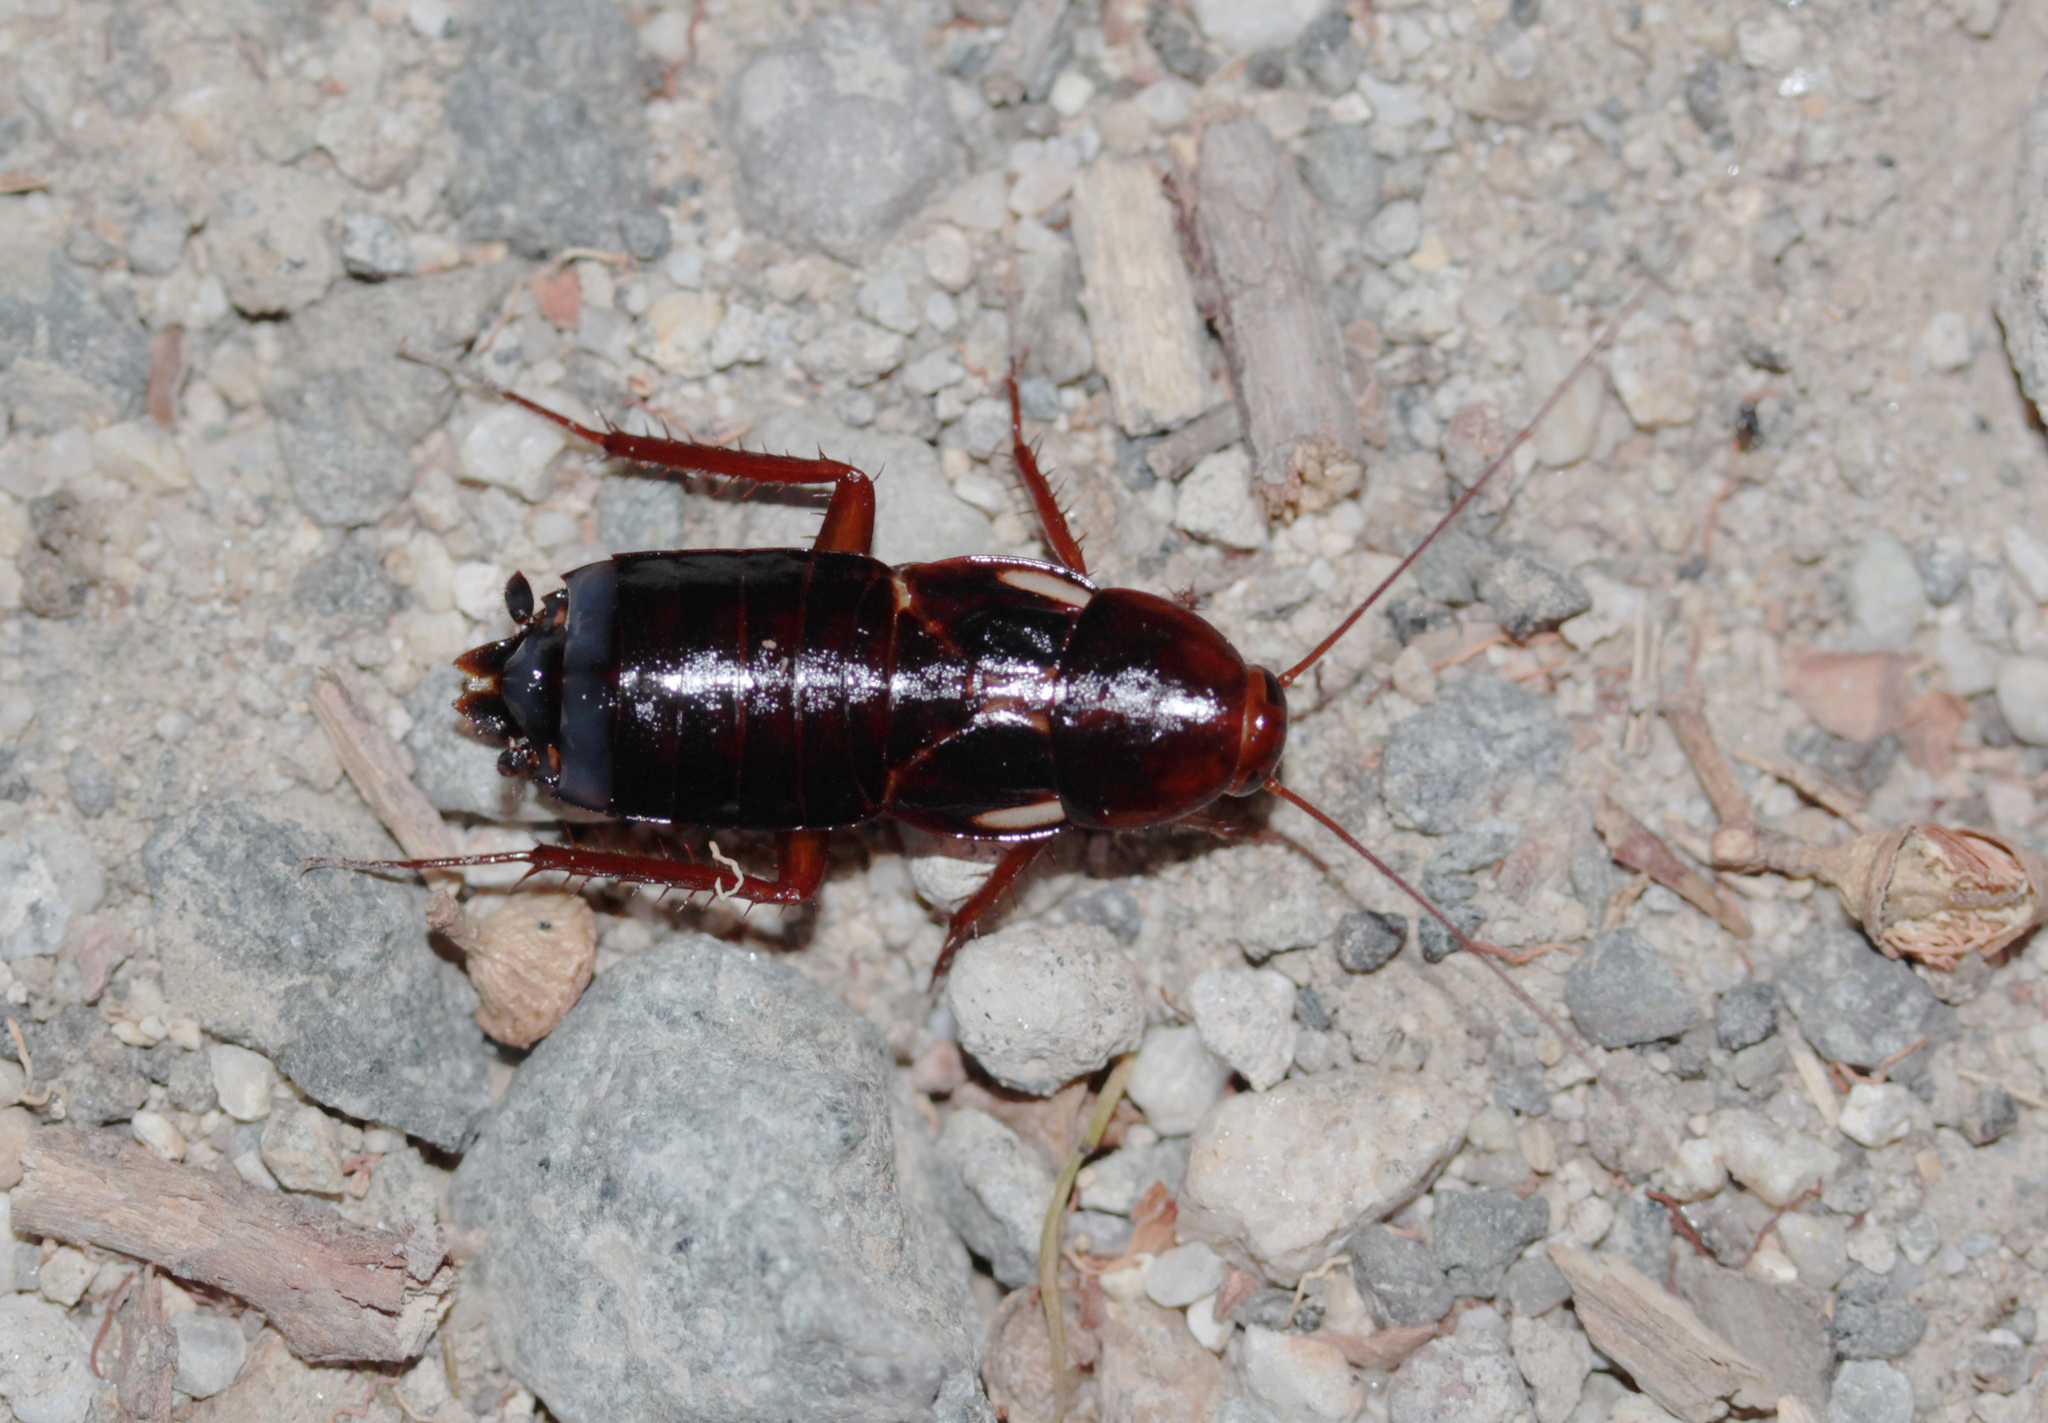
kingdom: Animalia
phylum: Arthropoda
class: Insecta
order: Blattodea
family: Blattidae
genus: Periplaneta
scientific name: Periplaneta lateralis
